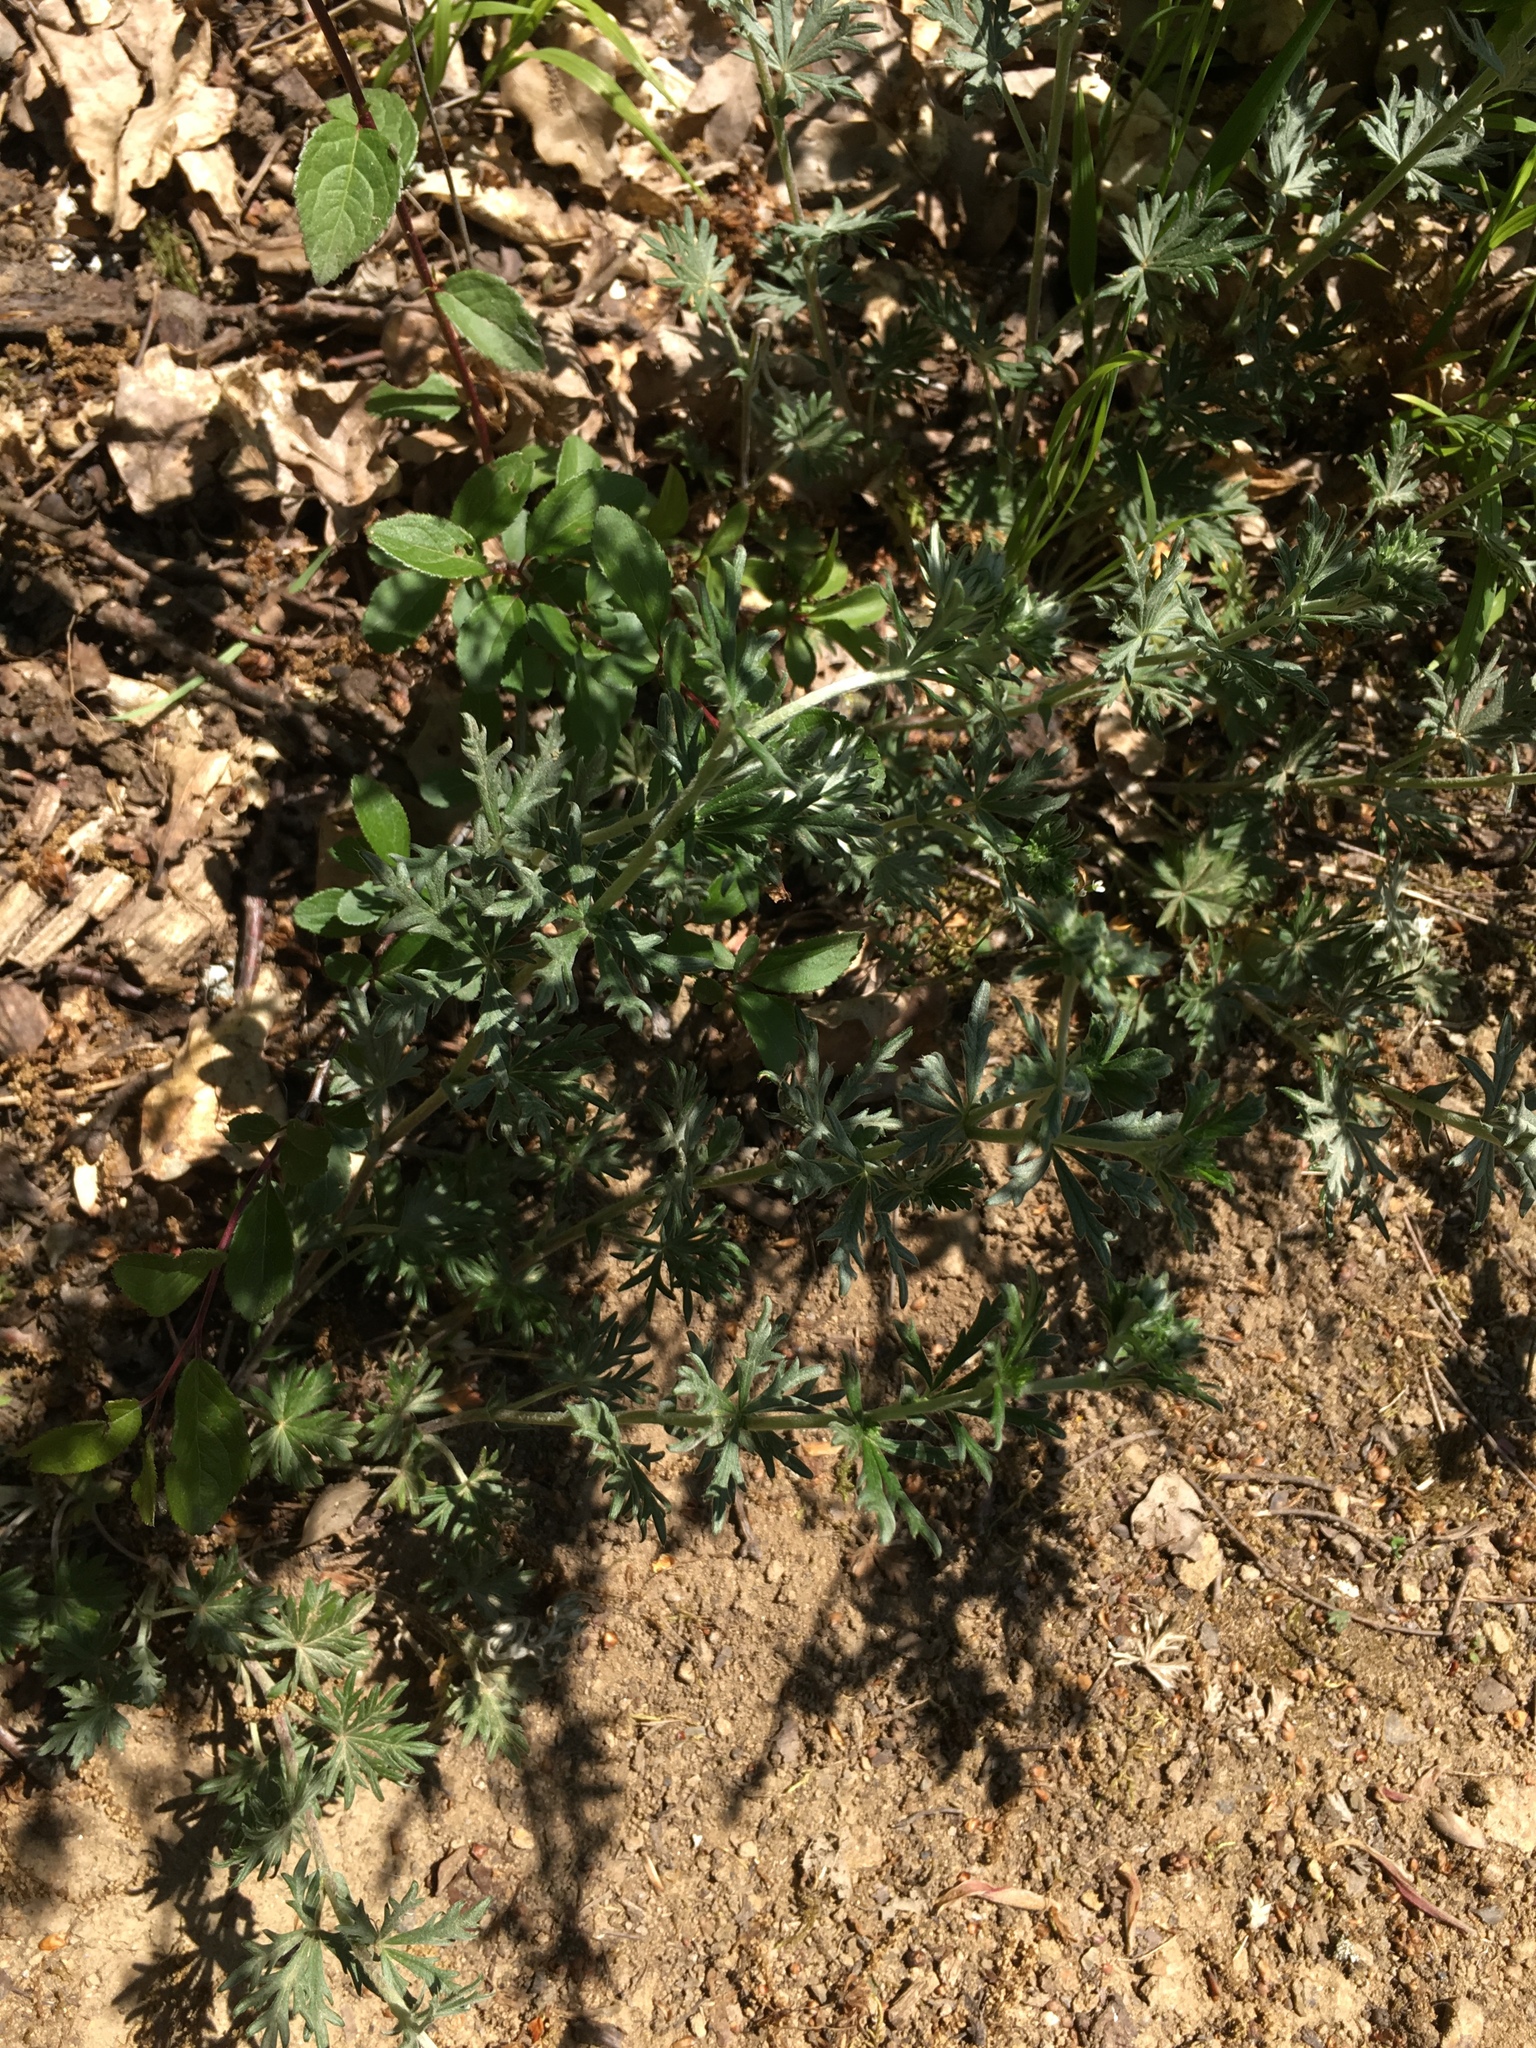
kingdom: Plantae
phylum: Tracheophyta
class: Magnoliopsida
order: Rosales
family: Rosaceae
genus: Potentilla
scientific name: Potentilla argentea
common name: Hoary cinquefoil
